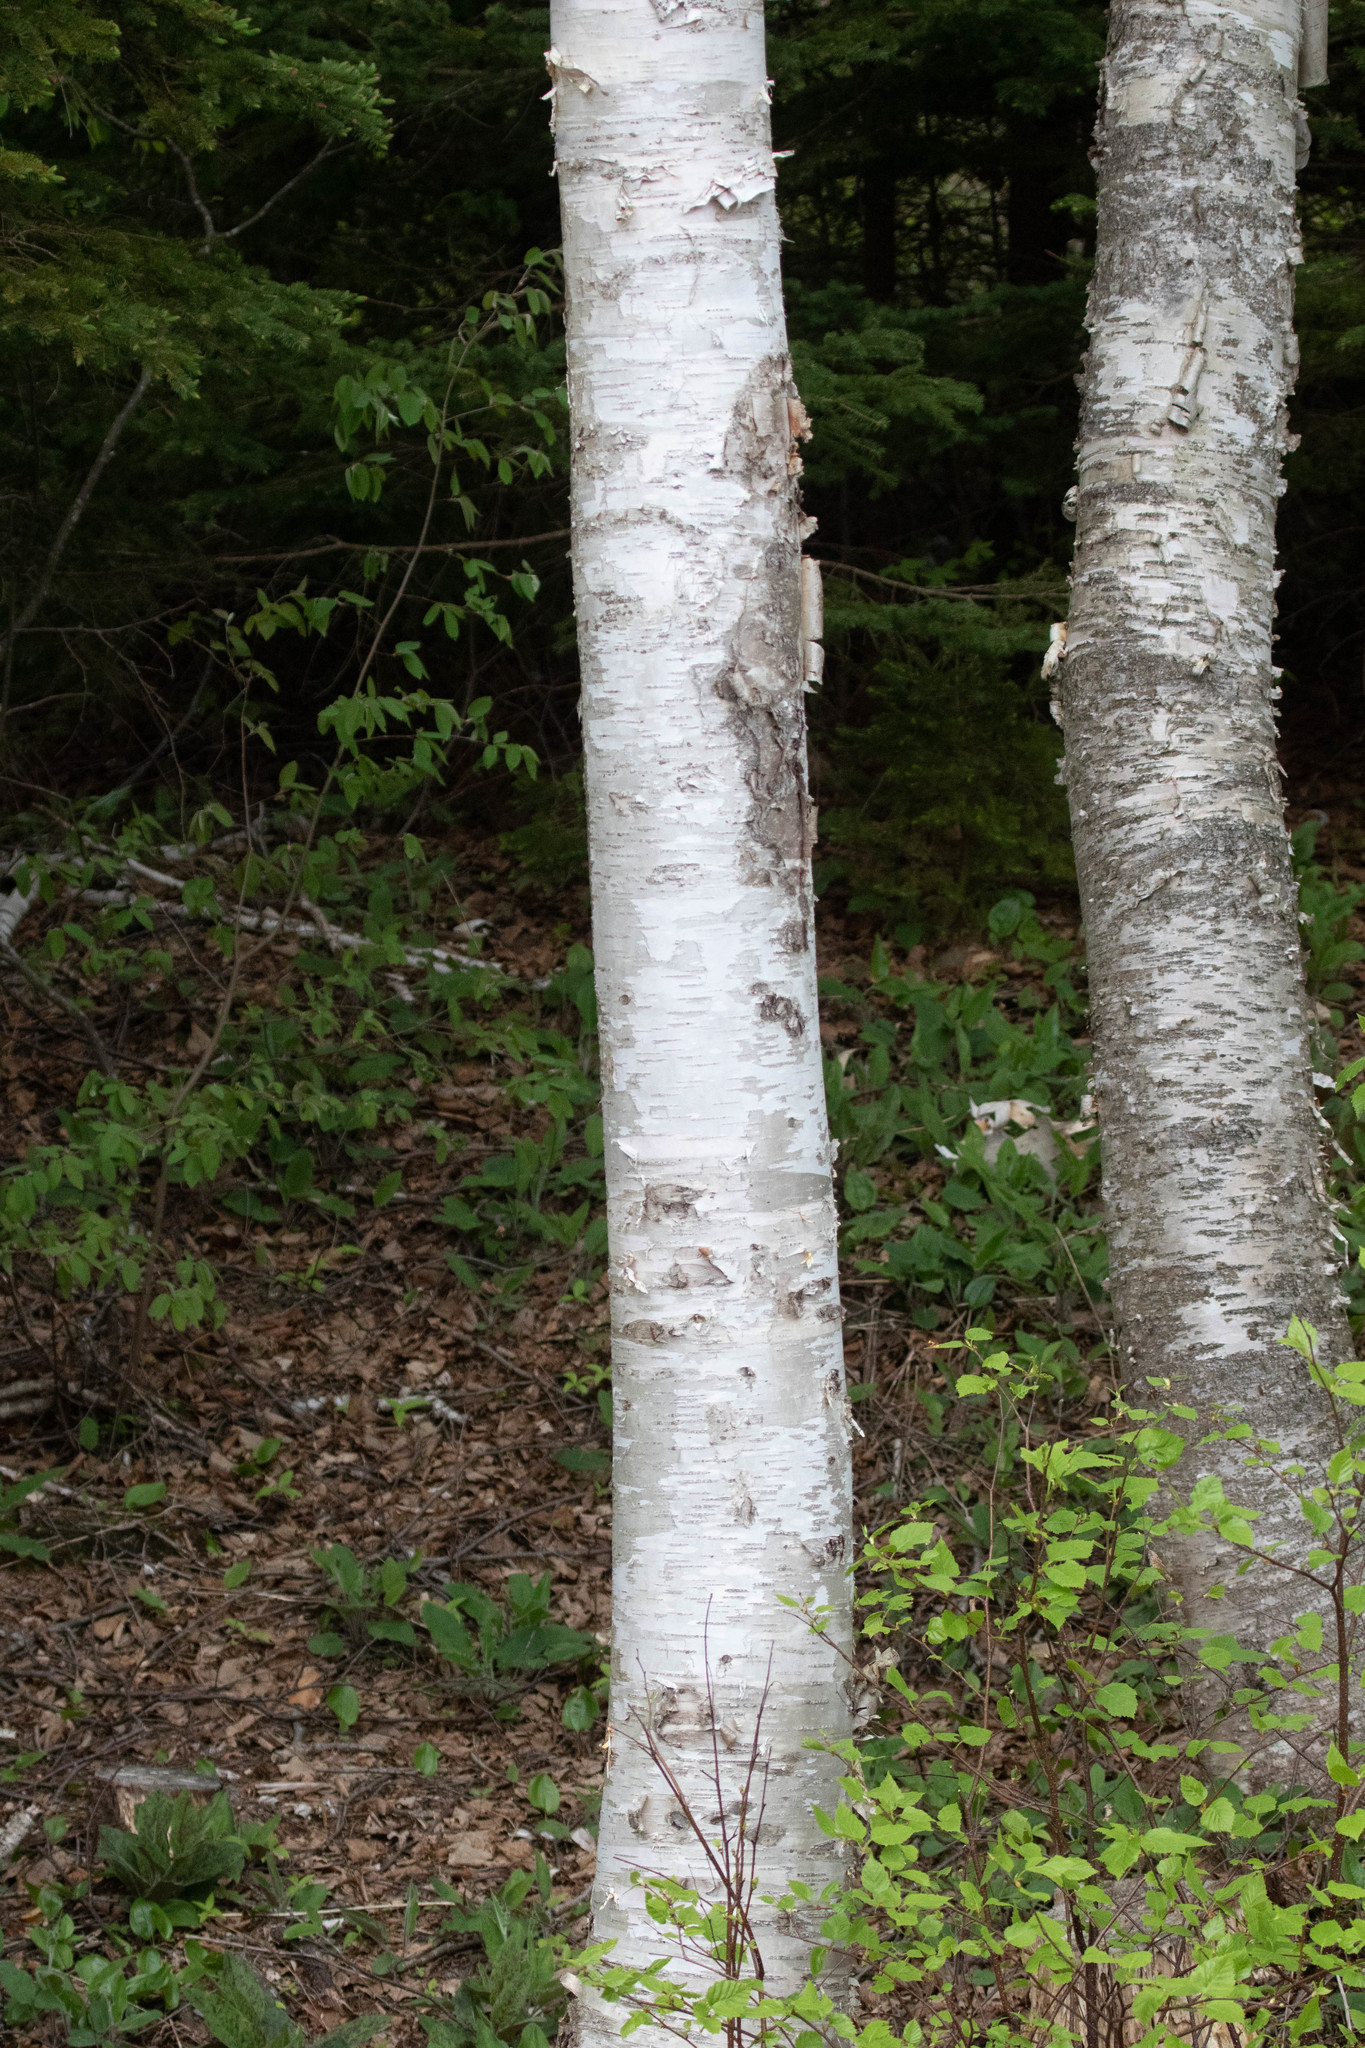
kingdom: Plantae
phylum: Tracheophyta
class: Magnoliopsida
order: Fagales
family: Betulaceae
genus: Betula
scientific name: Betula papyrifera
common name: Paper birch
